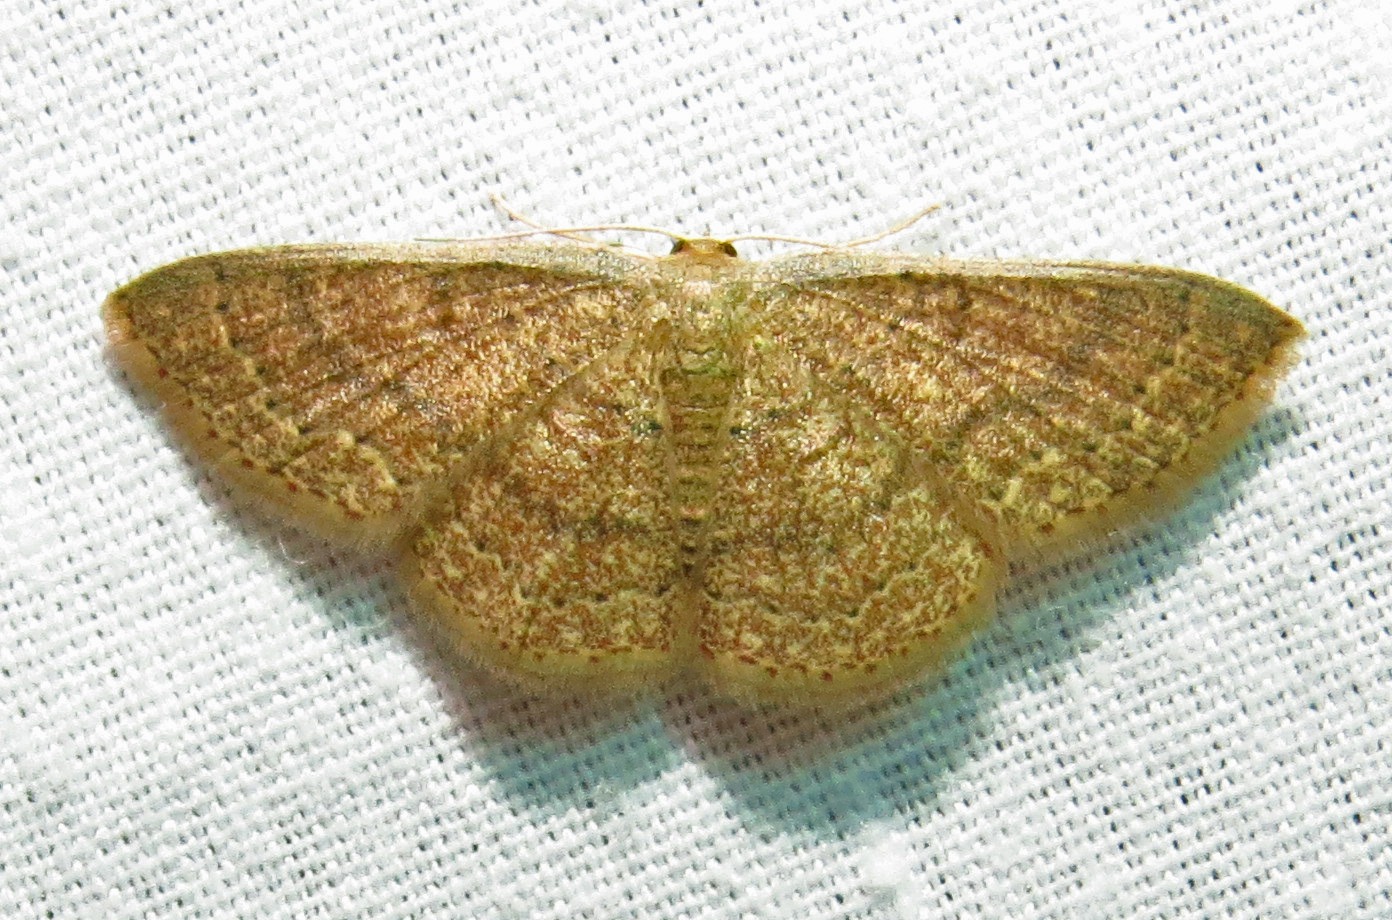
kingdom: Animalia
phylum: Arthropoda
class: Insecta
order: Lepidoptera
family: Geometridae
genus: Pleuroprucha
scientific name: Pleuroprucha insulsaria
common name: Common tan wave
